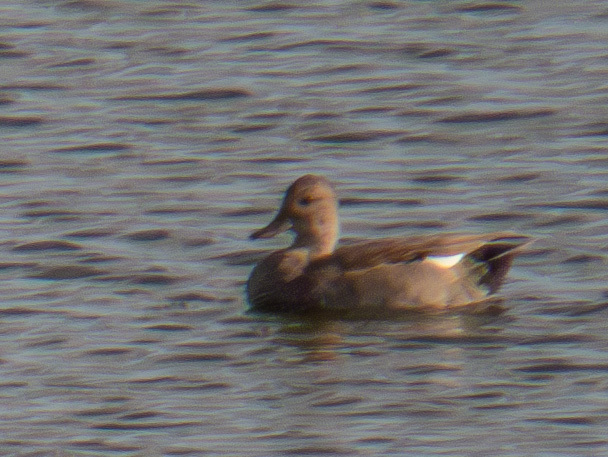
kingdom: Animalia
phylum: Chordata
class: Aves
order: Anseriformes
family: Anatidae
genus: Mareca
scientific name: Mareca strepera
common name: Gadwall
